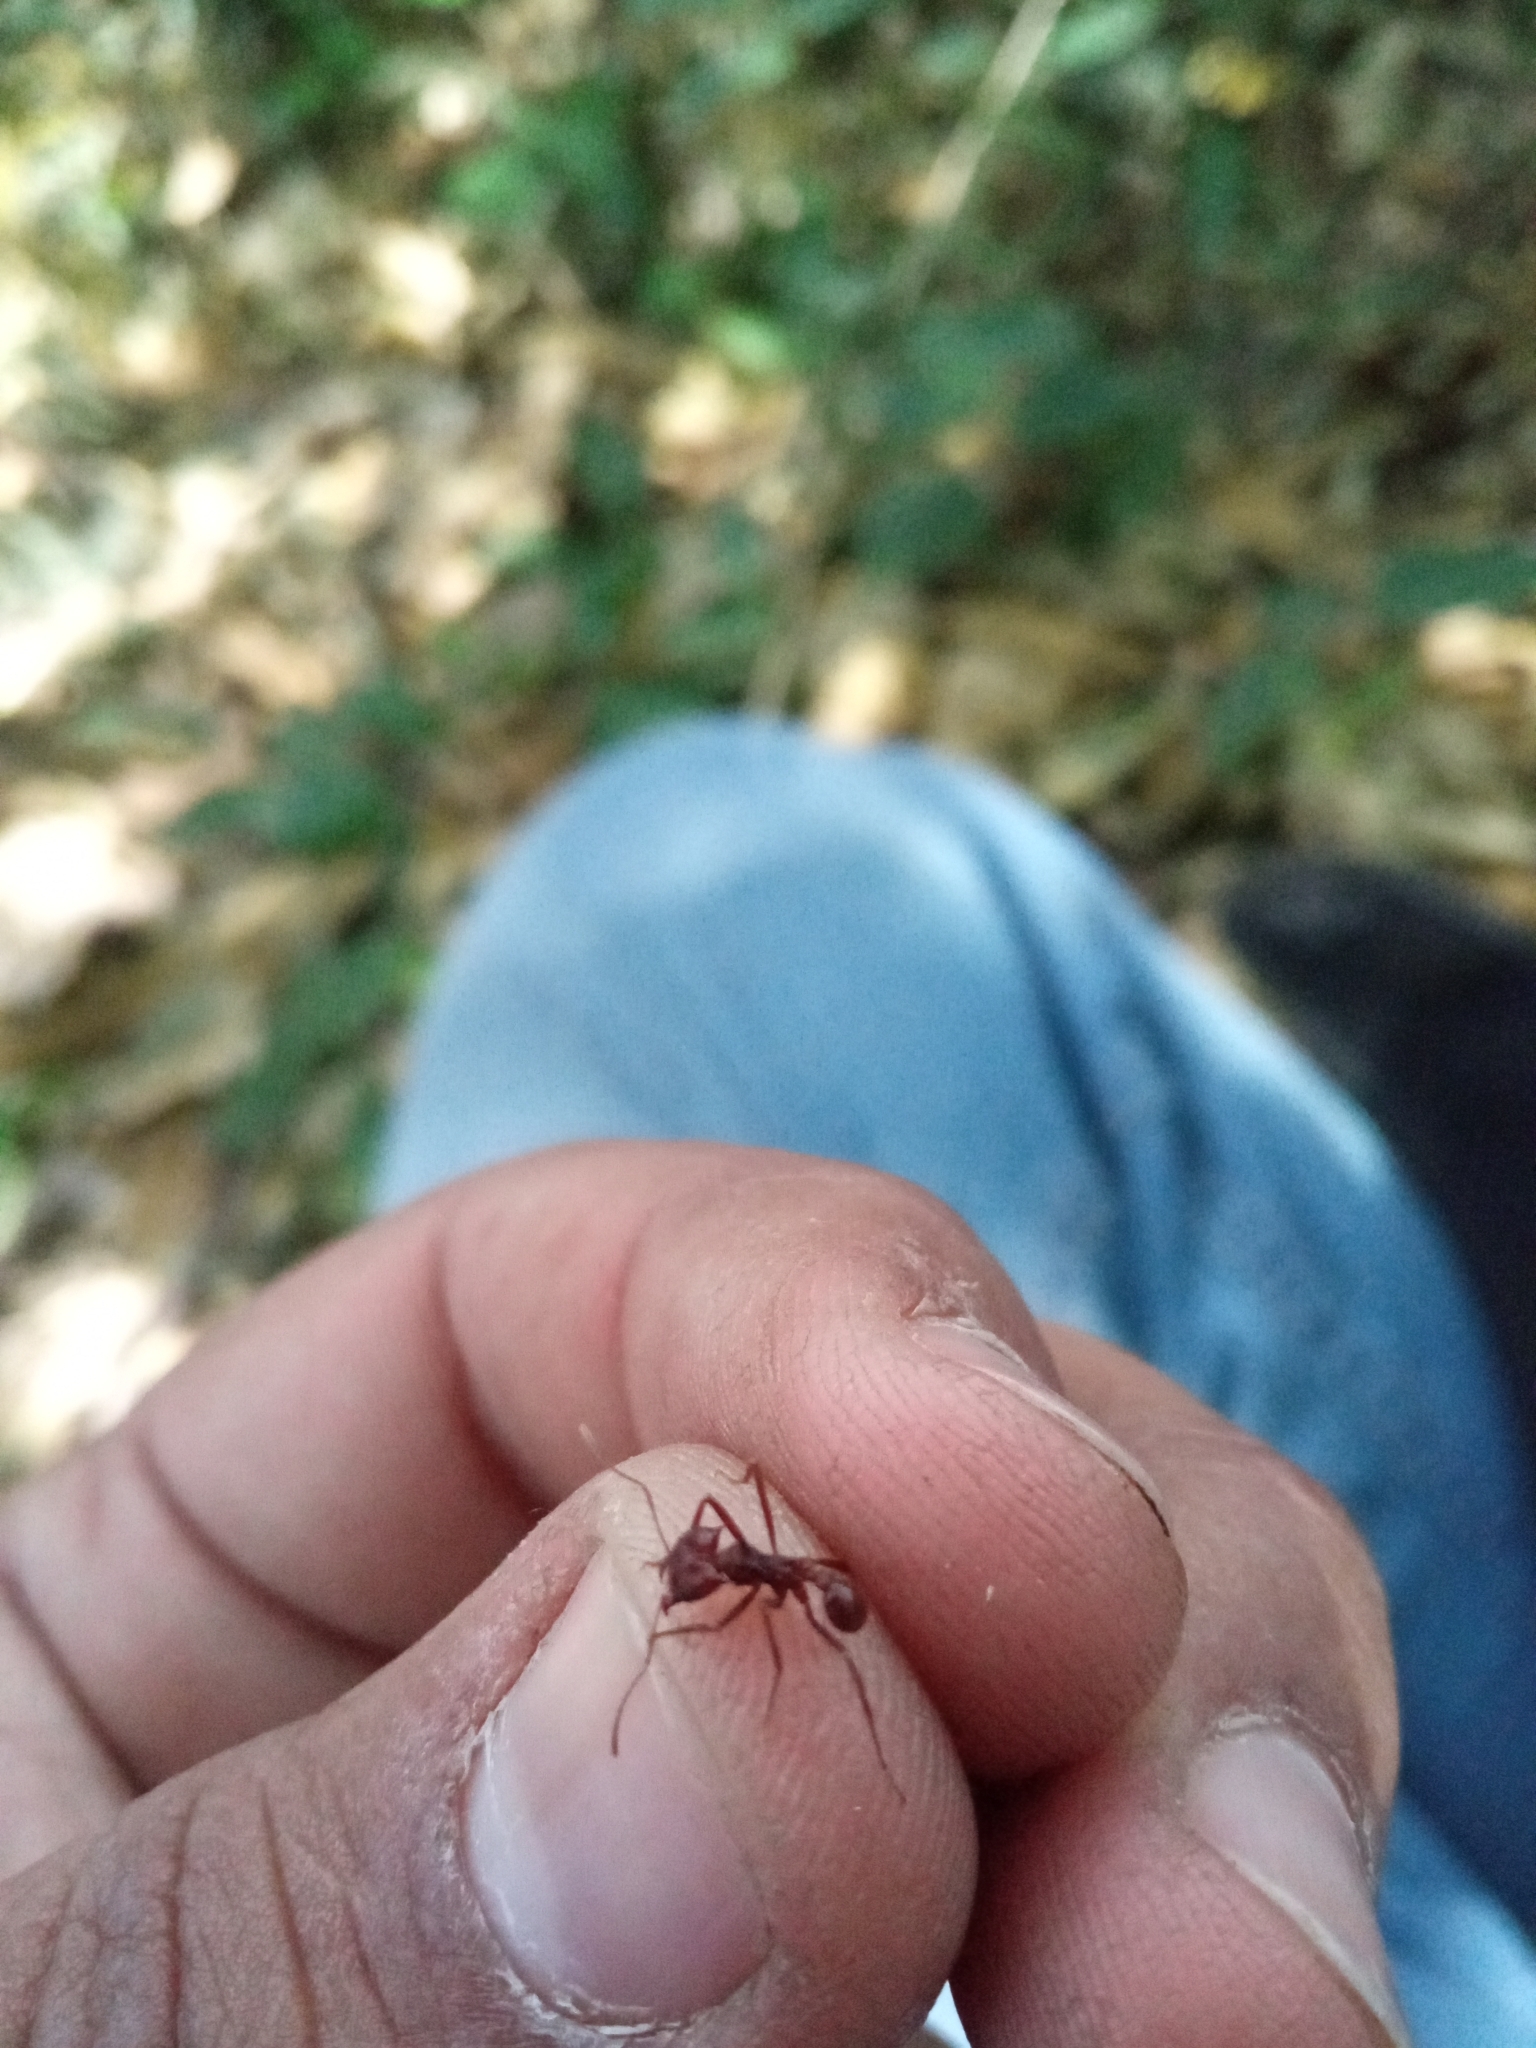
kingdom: Animalia
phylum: Arthropoda
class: Insecta
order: Hymenoptera
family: Formicidae
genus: Atta
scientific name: Atta mexicana
